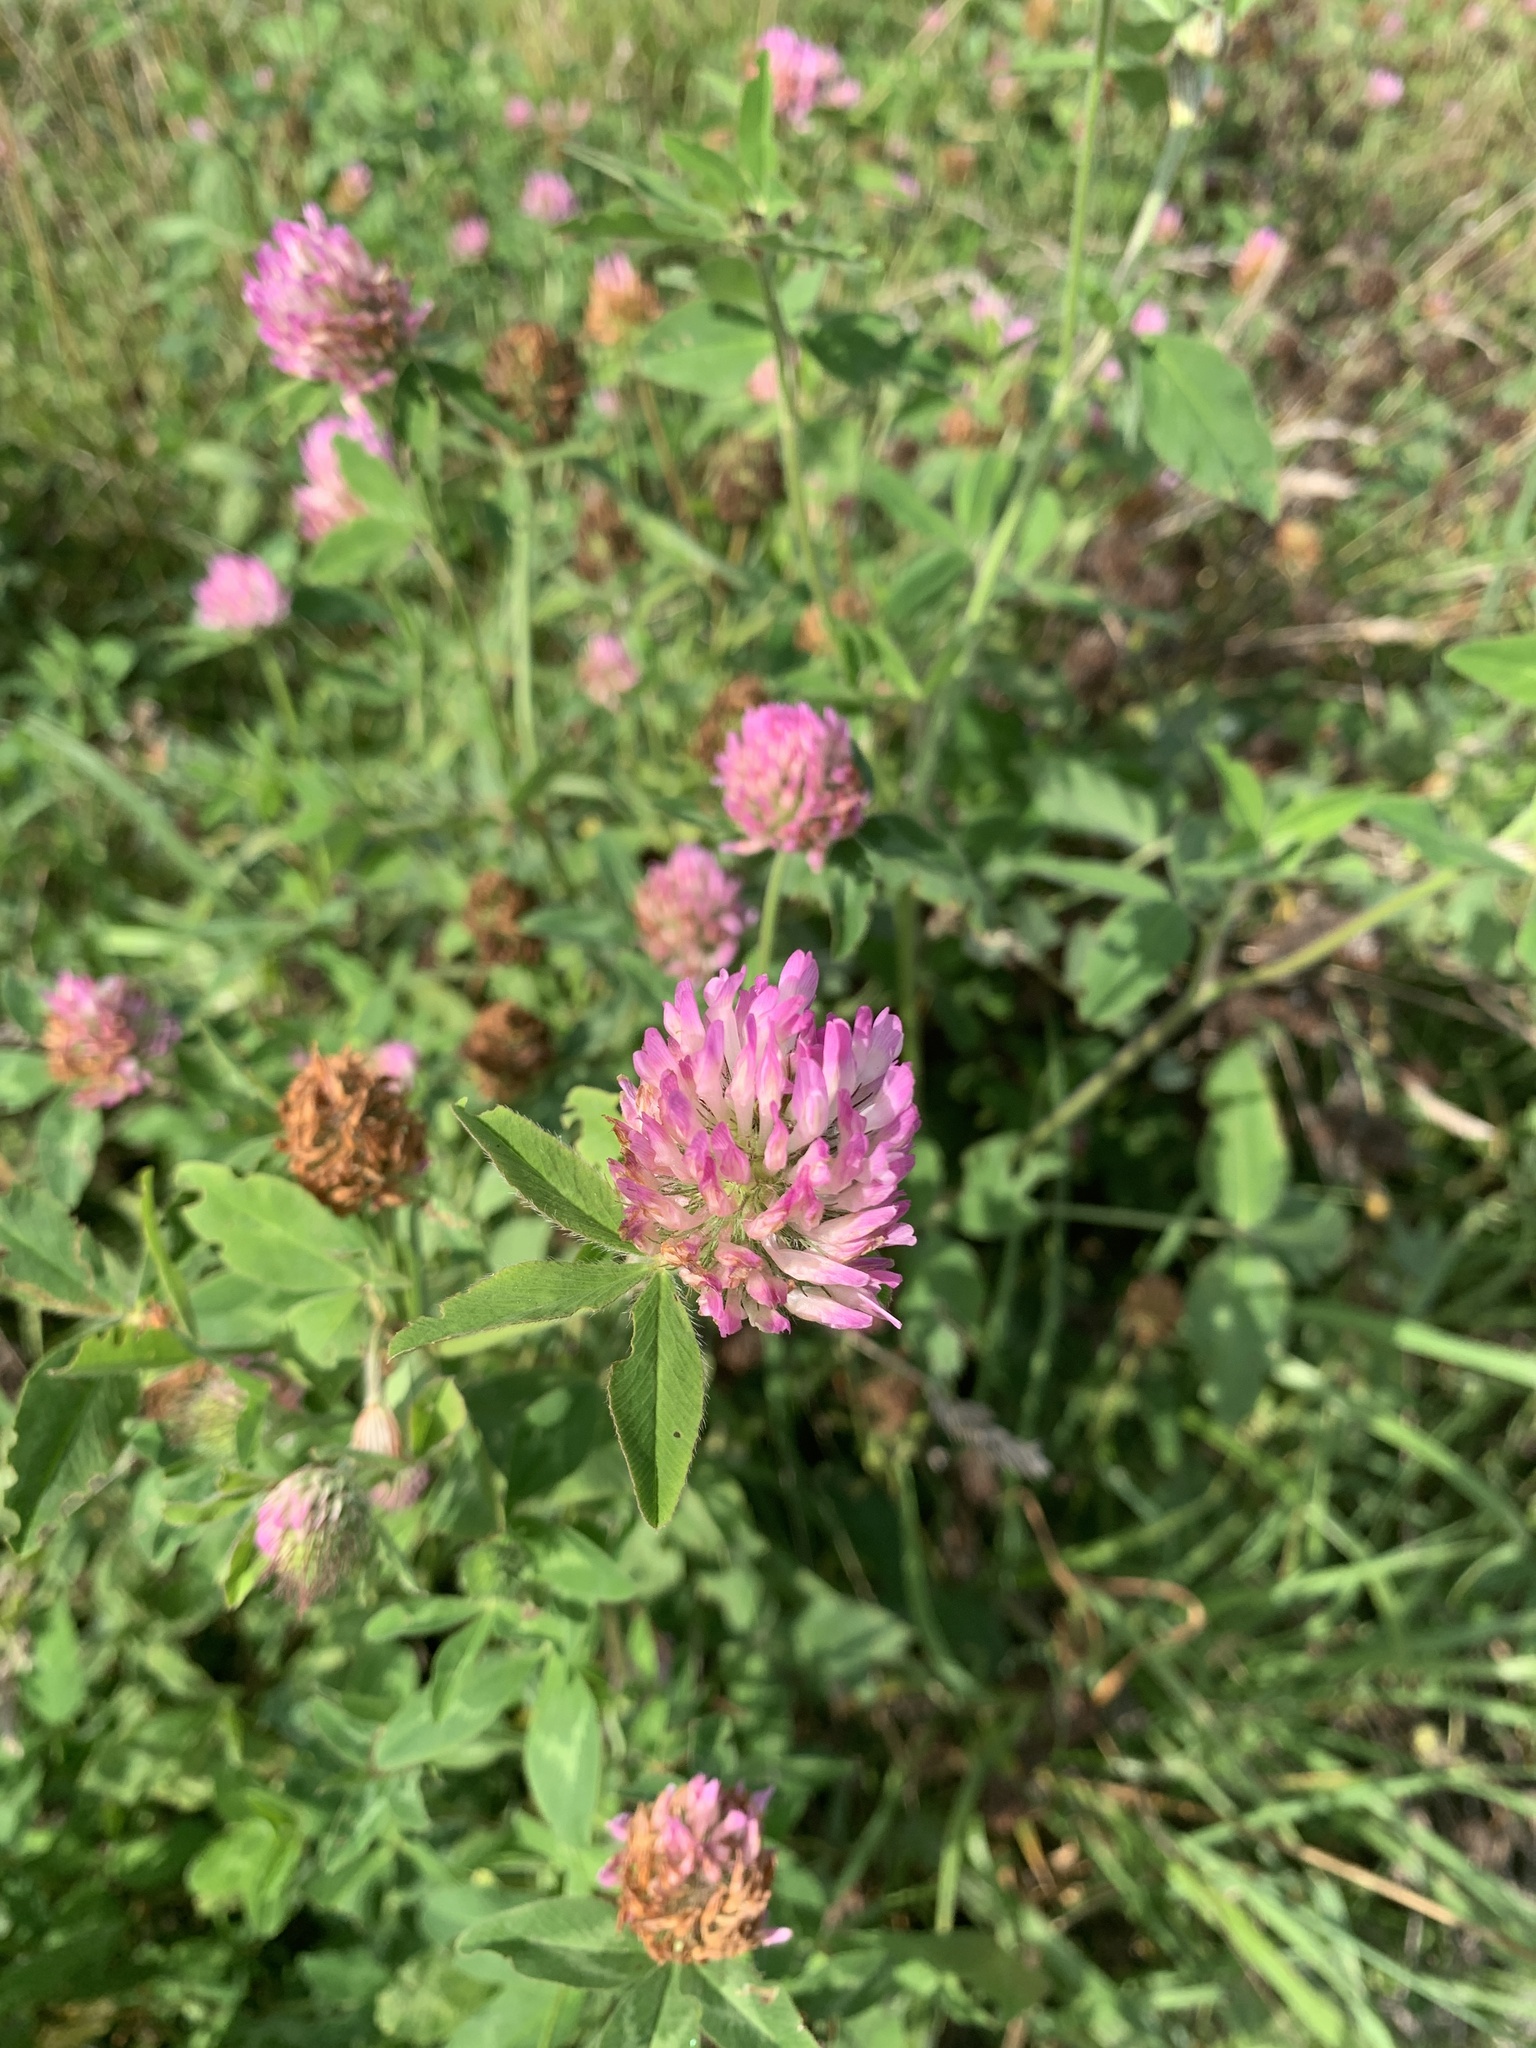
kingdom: Plantae
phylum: Tracheophyta
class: Magnoliopsida
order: Fabales
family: Fabaceae
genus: Trifolium
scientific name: Trifolium pratense
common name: Red clover
